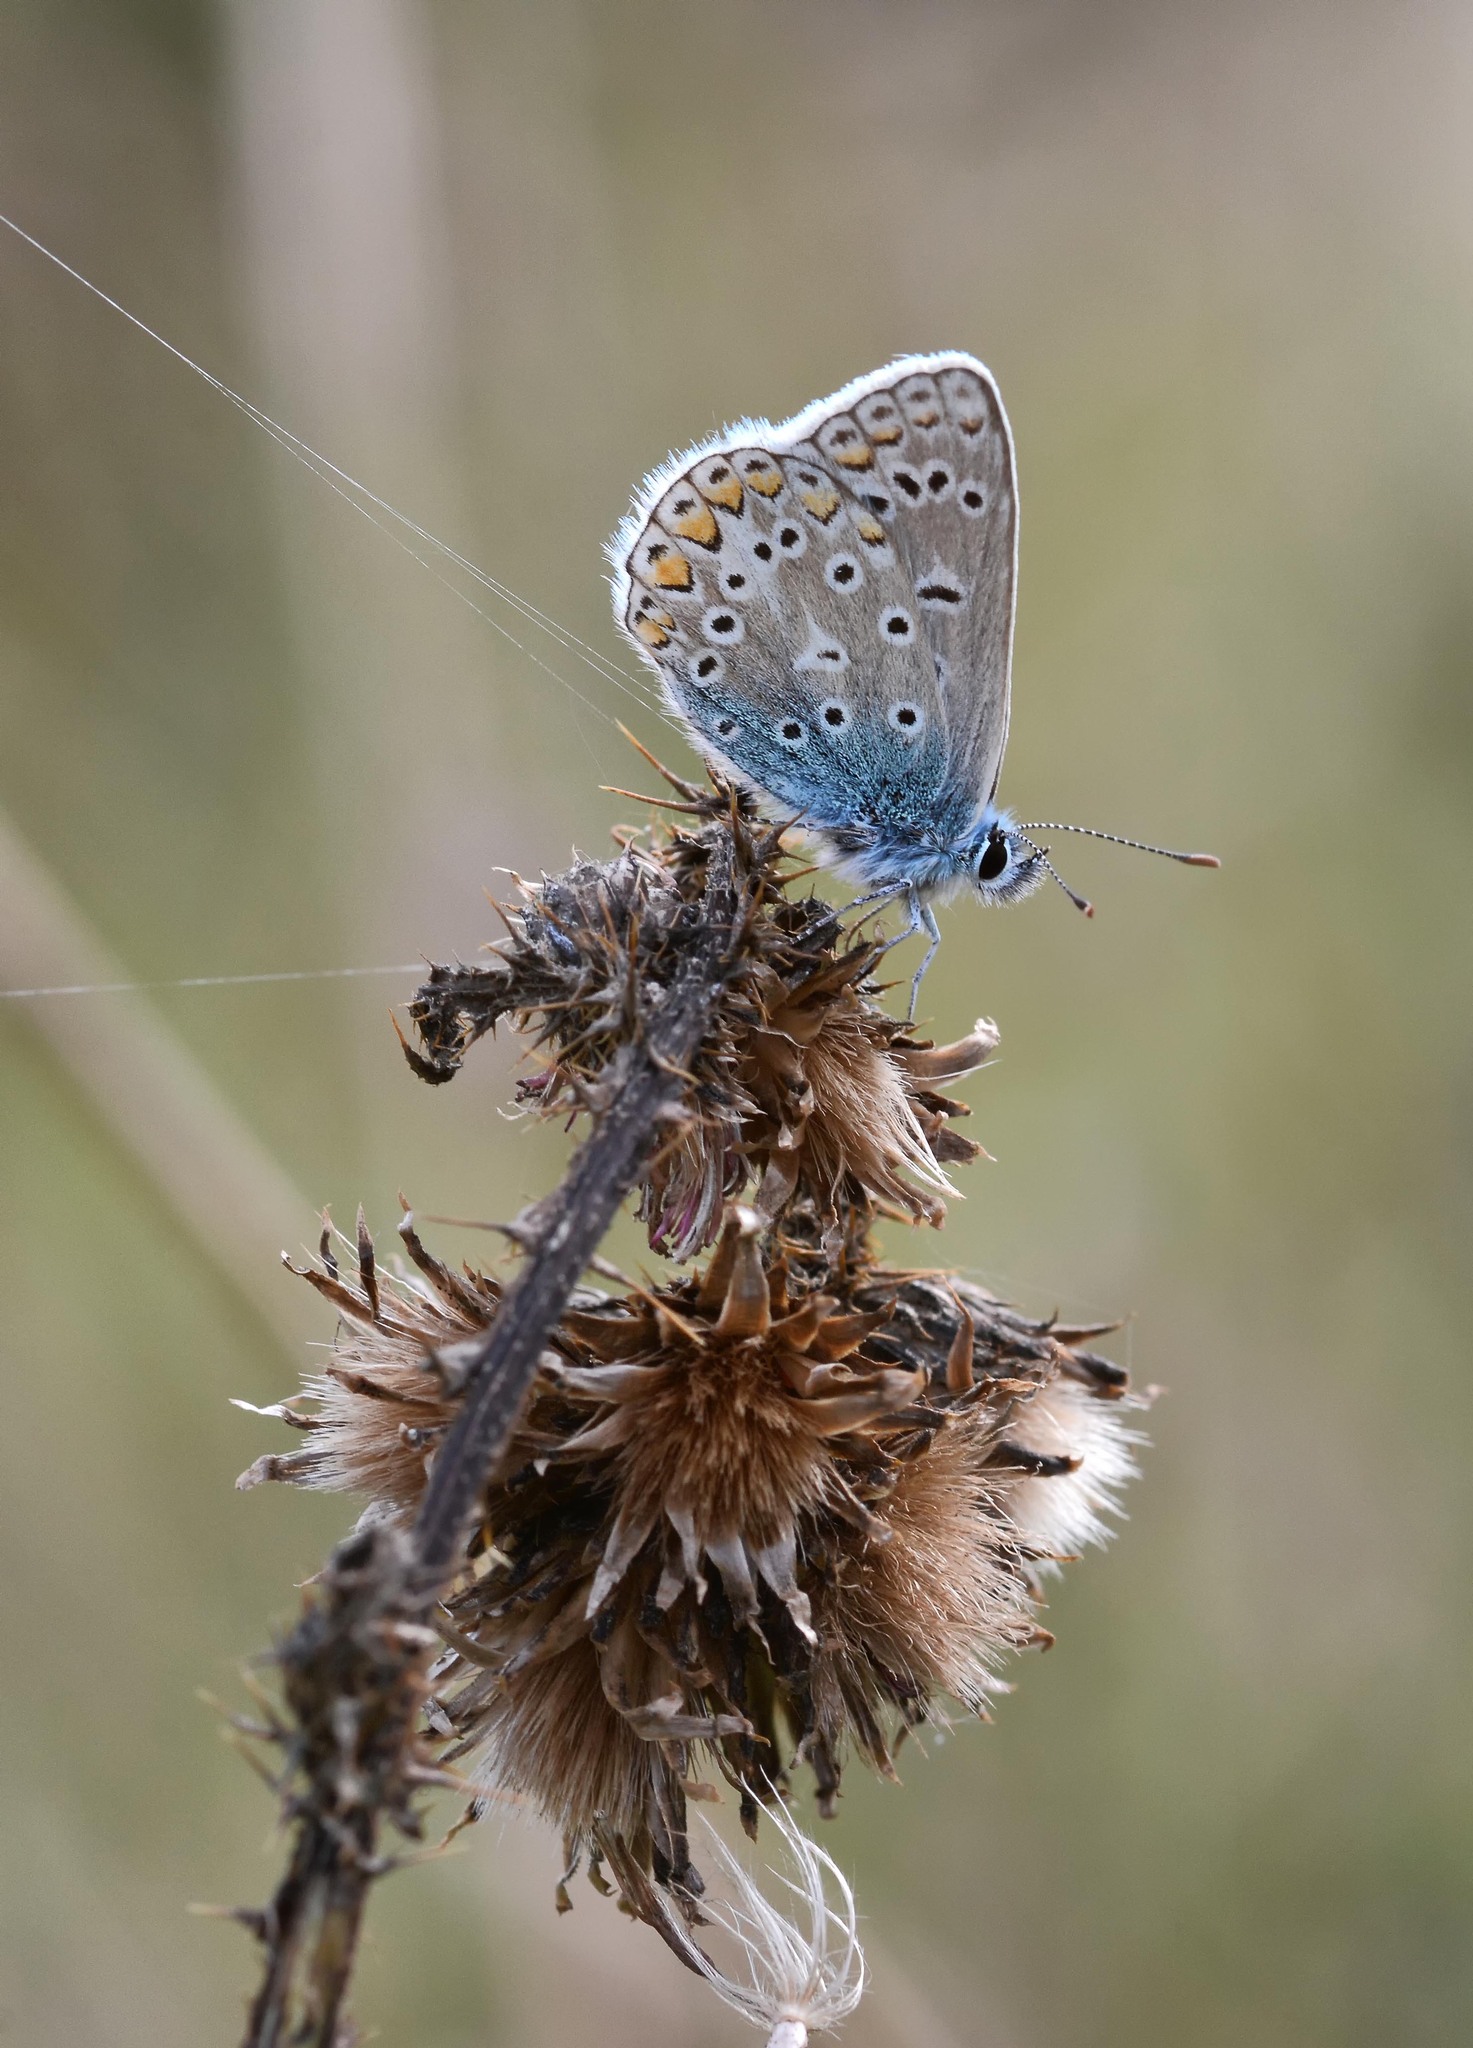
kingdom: Animalia
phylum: Arthropoda
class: Insecta
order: Lepidoptera
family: Lycaenidae
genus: Polyommatus
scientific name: Polyommatus icarus
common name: Common blue
